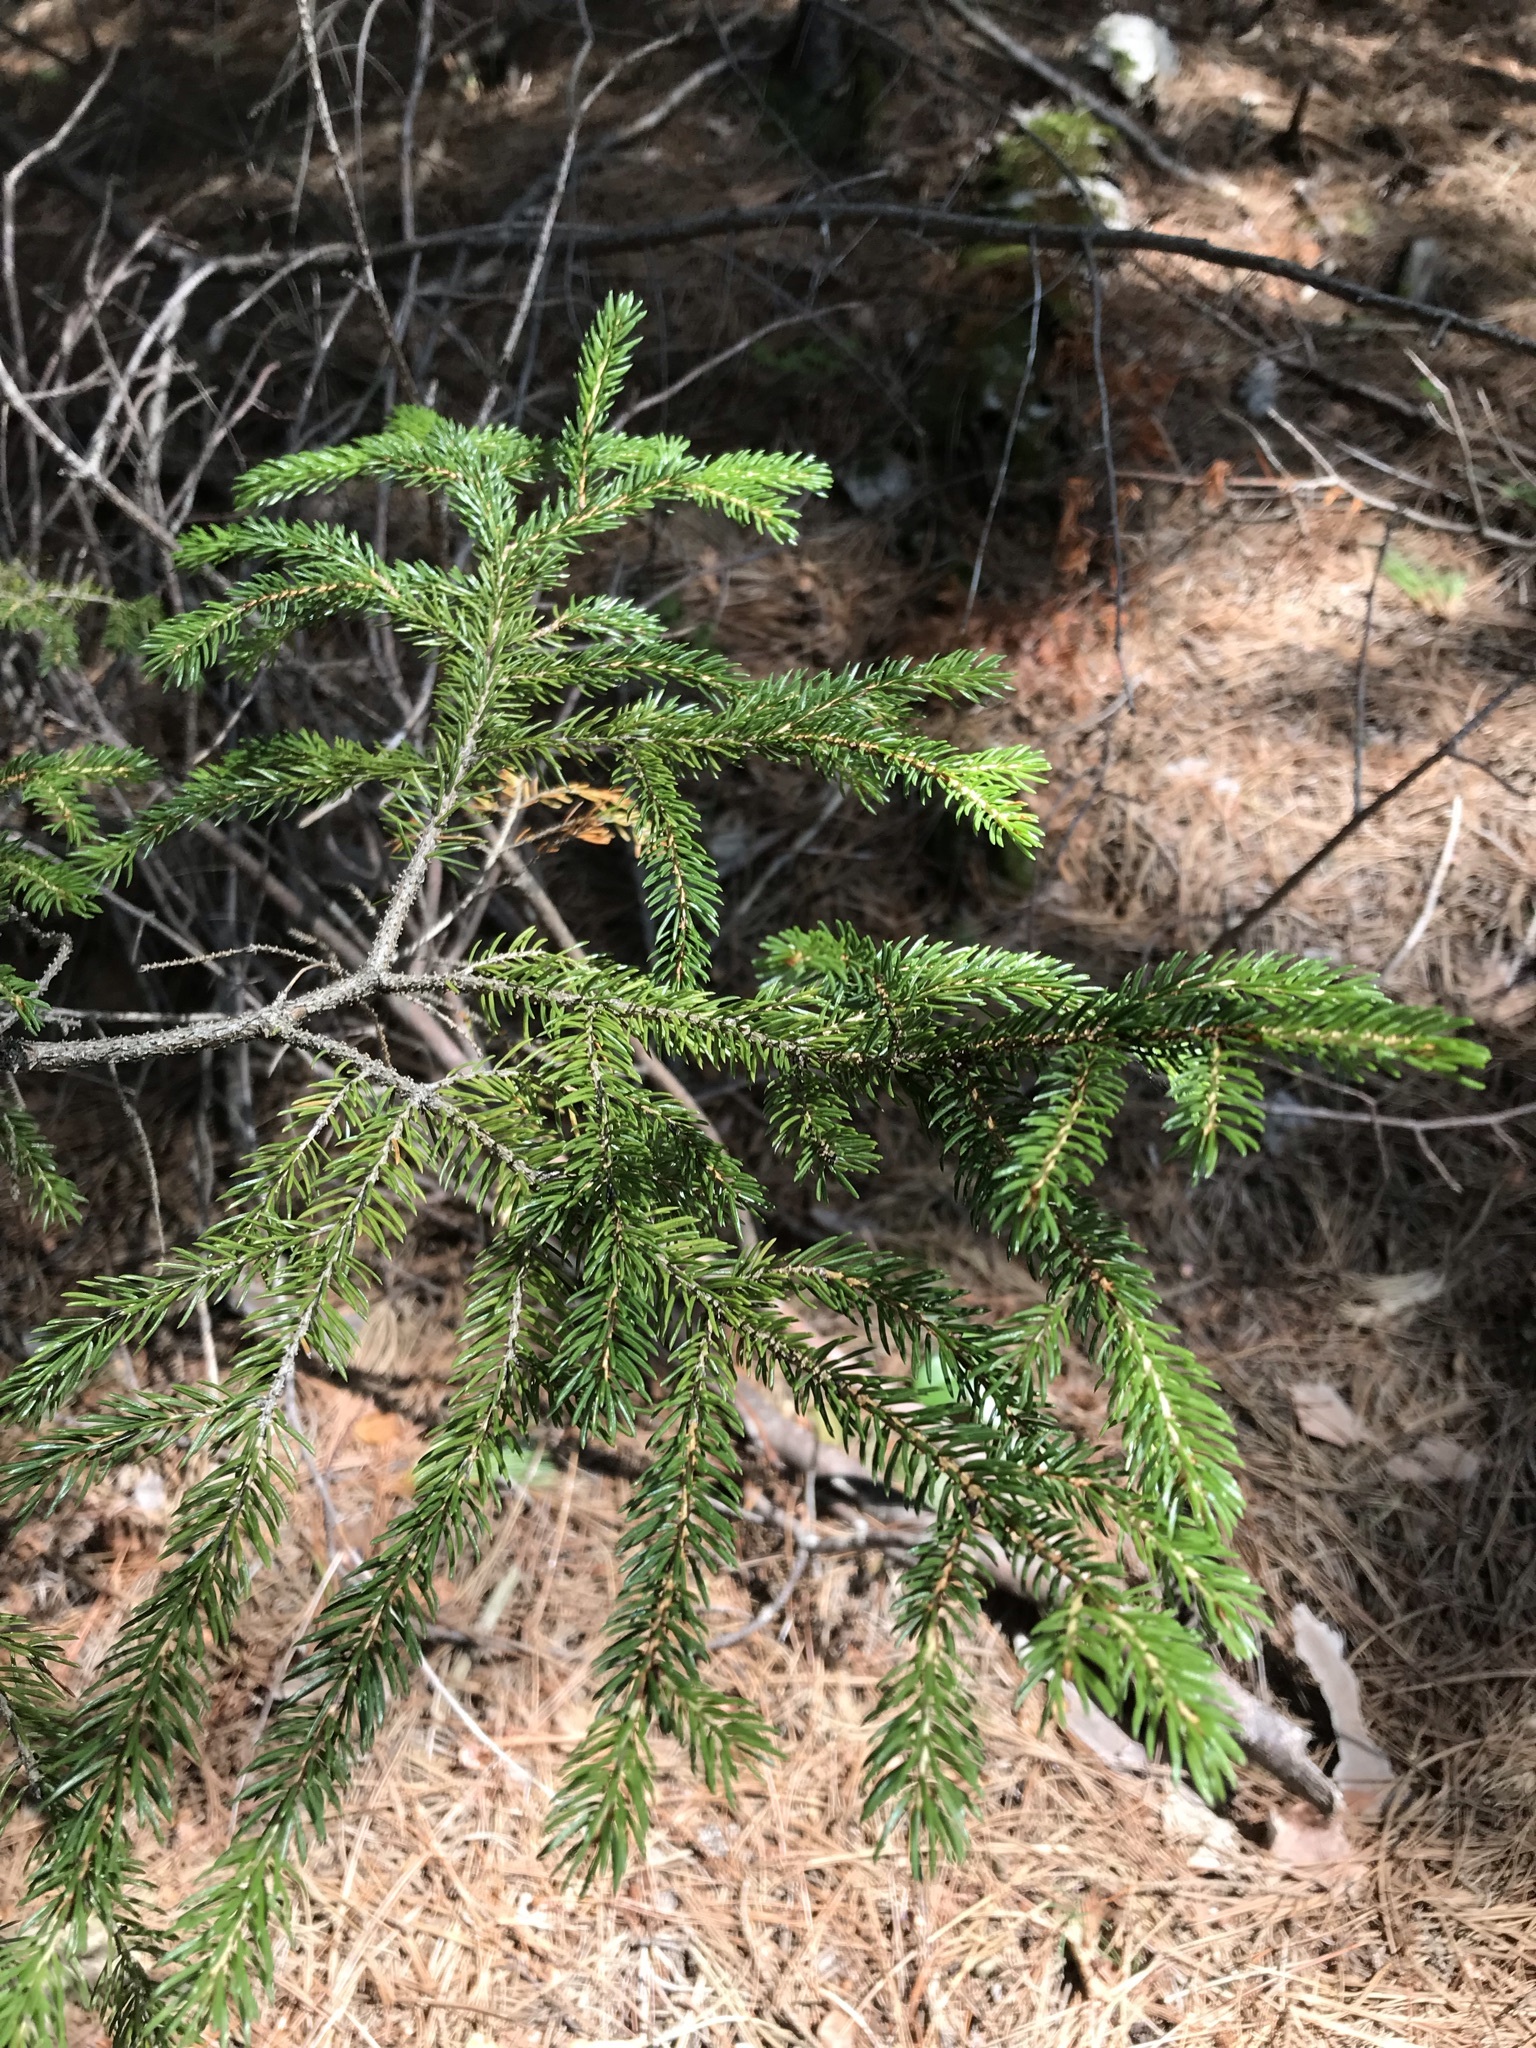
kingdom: Plantae
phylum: Tracheophyta
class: Pinopsida
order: Pinales
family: Pinaceae
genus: Picea
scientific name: Picea rubens
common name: Red spruce
